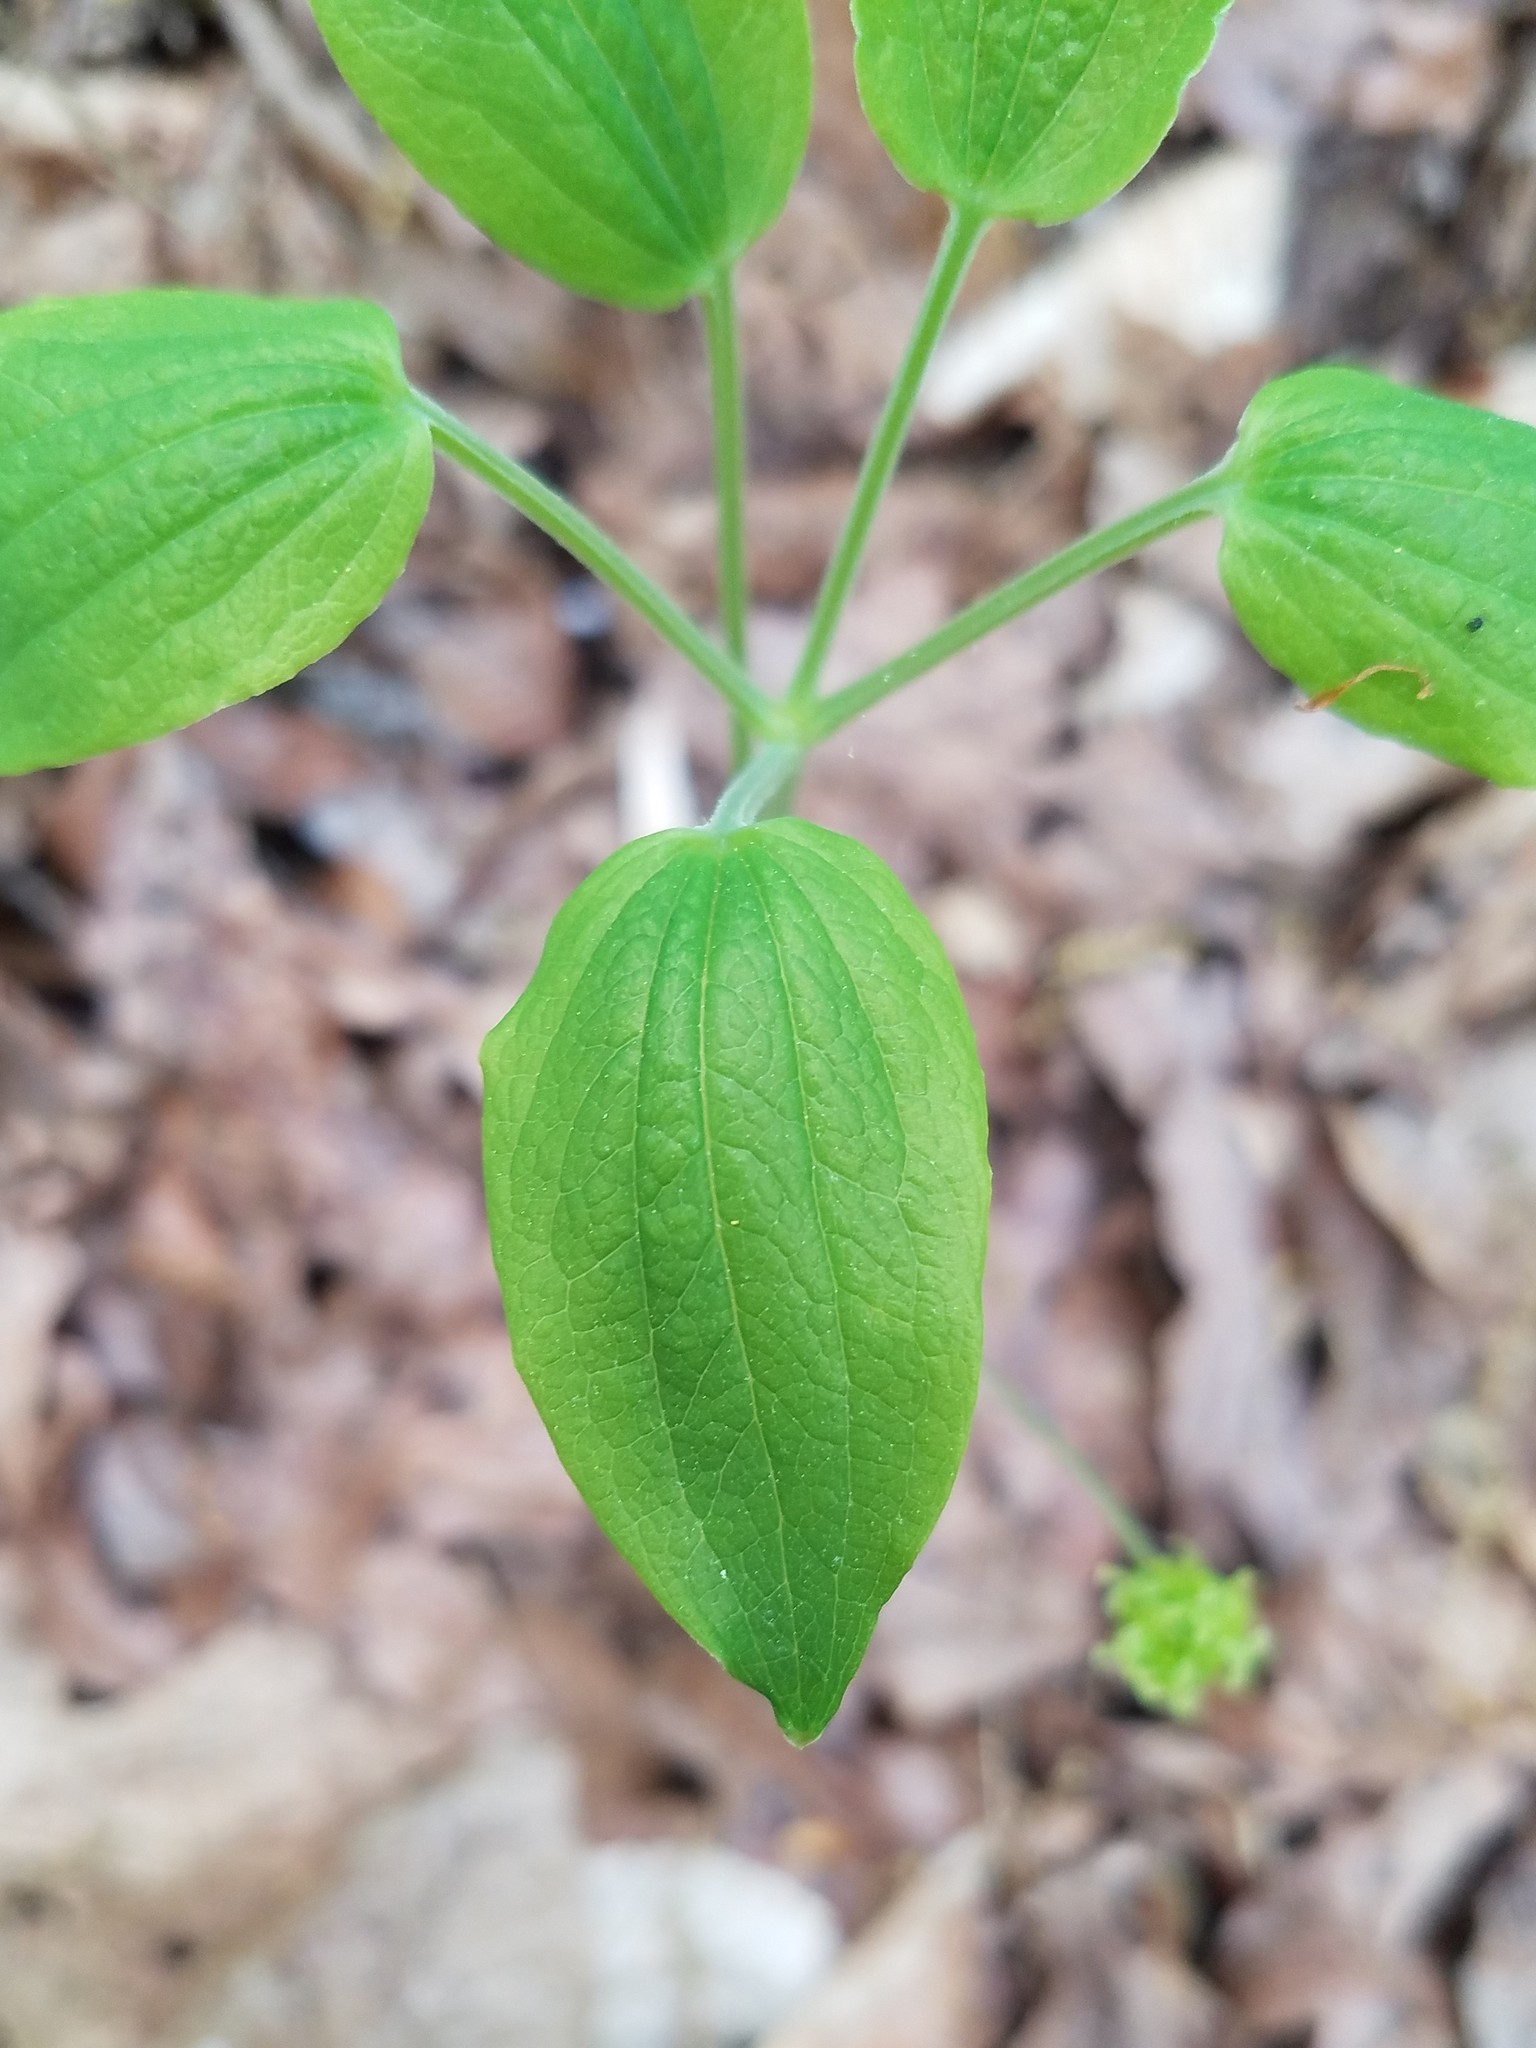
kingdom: Plantae
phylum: Tracheophyta
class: Liliopsida
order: Liliales
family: Smilacaceae
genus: Smilax
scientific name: Smilax hugeri
